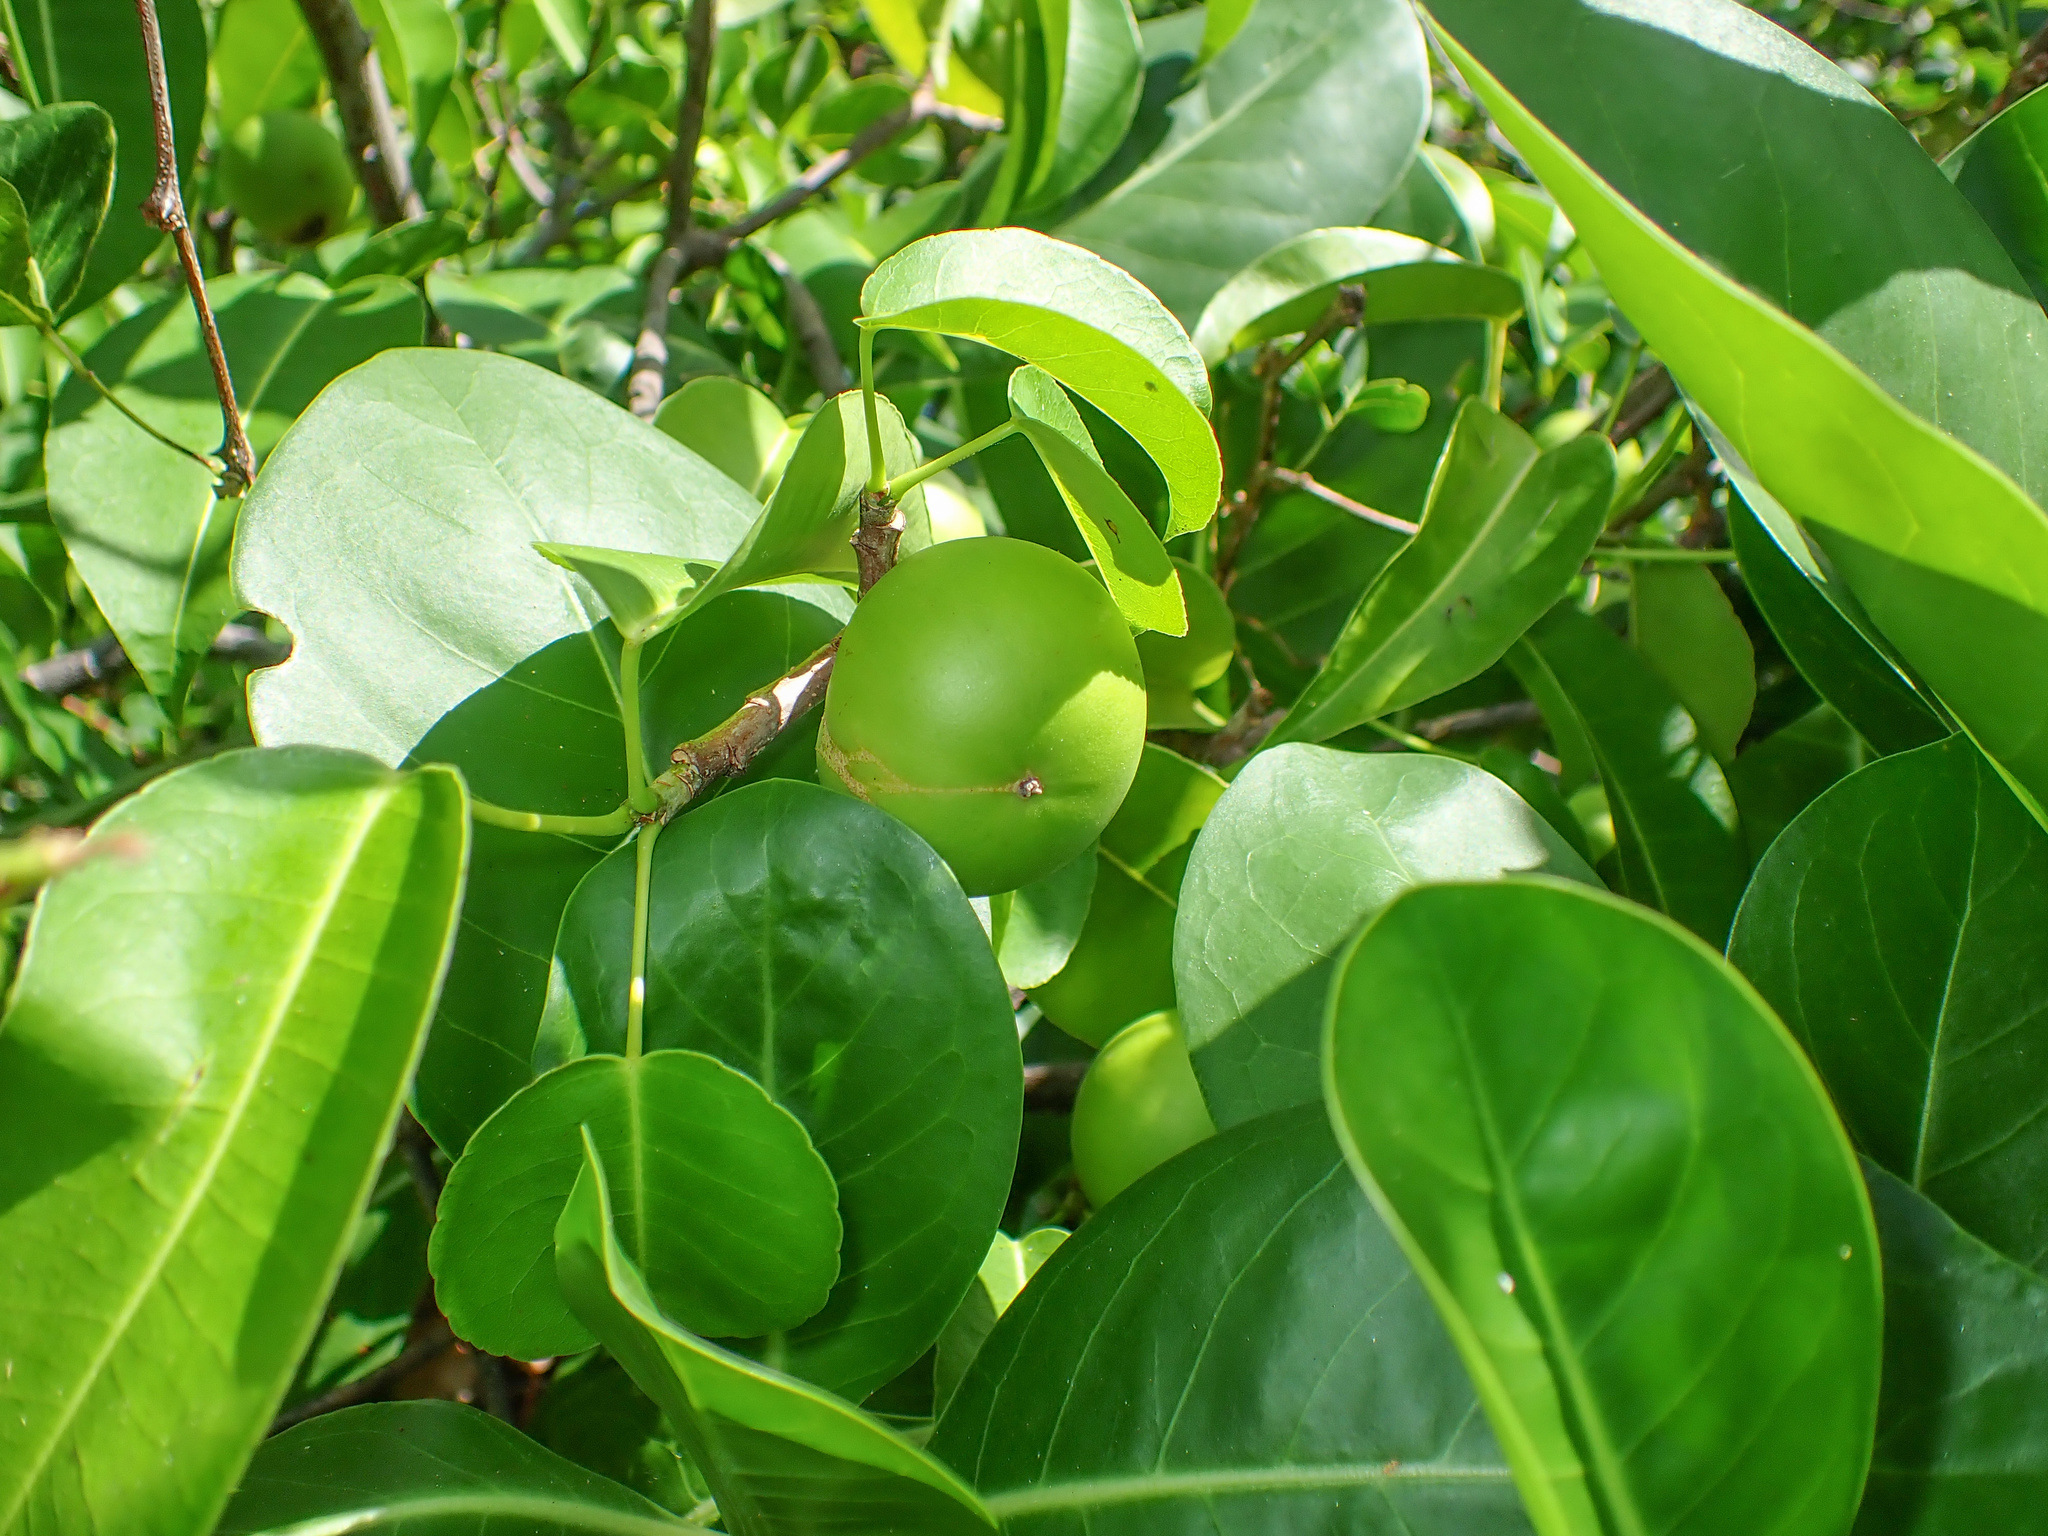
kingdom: Plantae
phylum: Tracheophyta
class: Magnoliopsida
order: Malpighiales
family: Euphorbiaceae
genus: Hippomane
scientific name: Hippomane mancinella
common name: Manchineel
